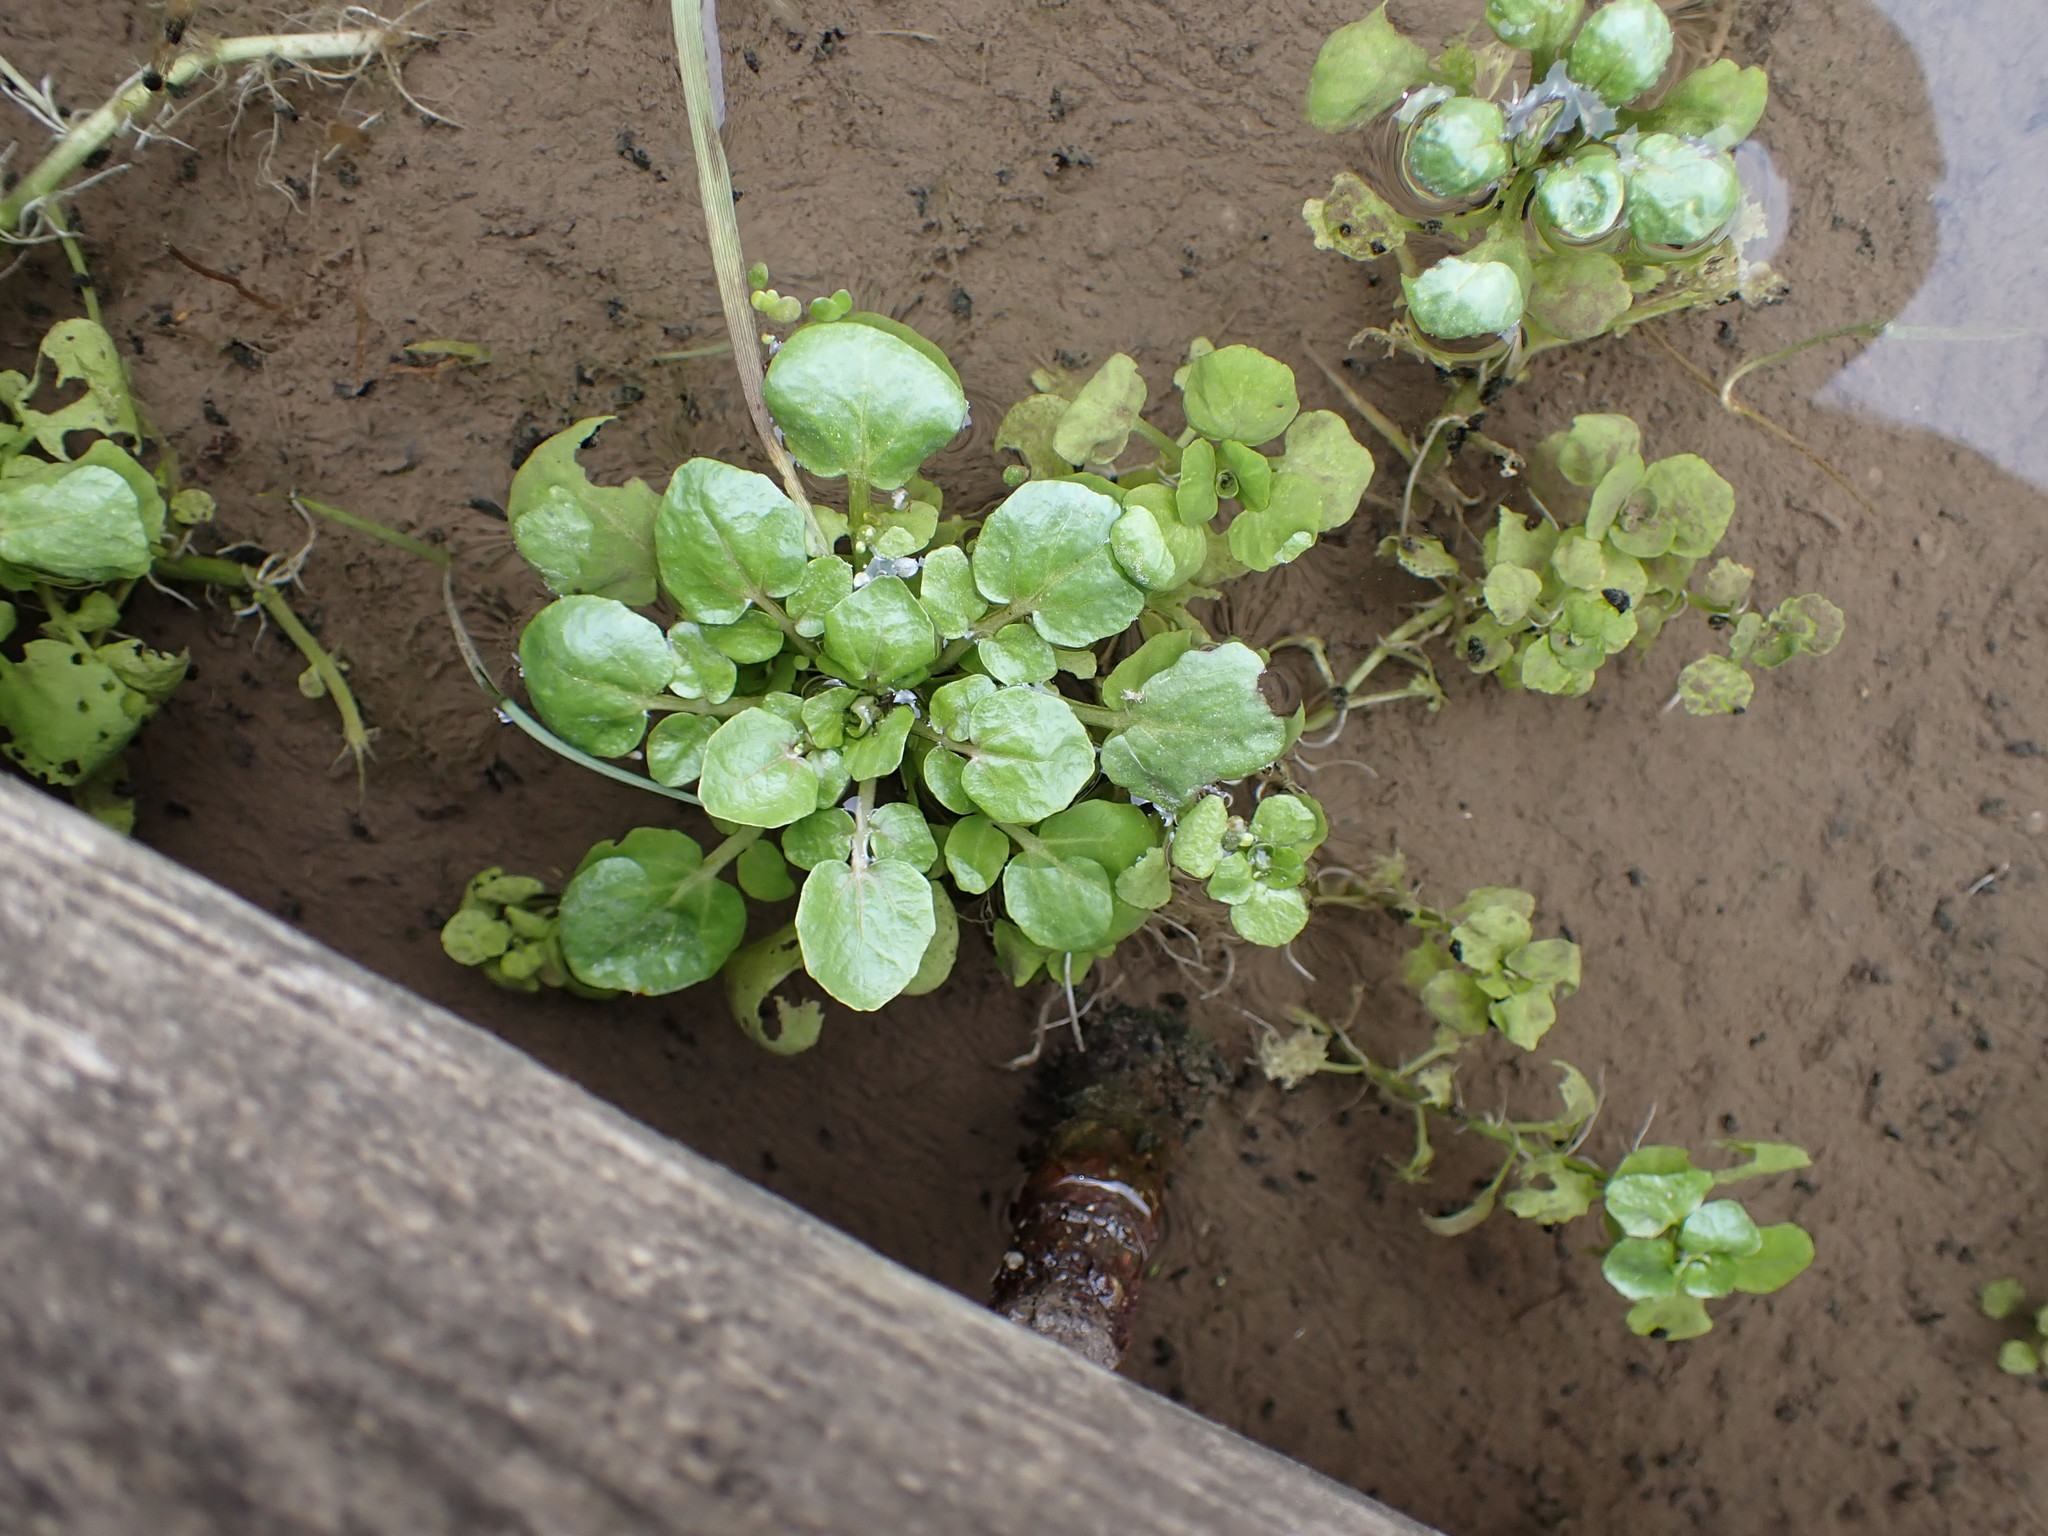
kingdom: Plantae
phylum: Tracheophyta
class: Magnoliopsida
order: Brassicales
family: Brassicaceae
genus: Nasturtium
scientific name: Nasturtium officinale
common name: Watercress
